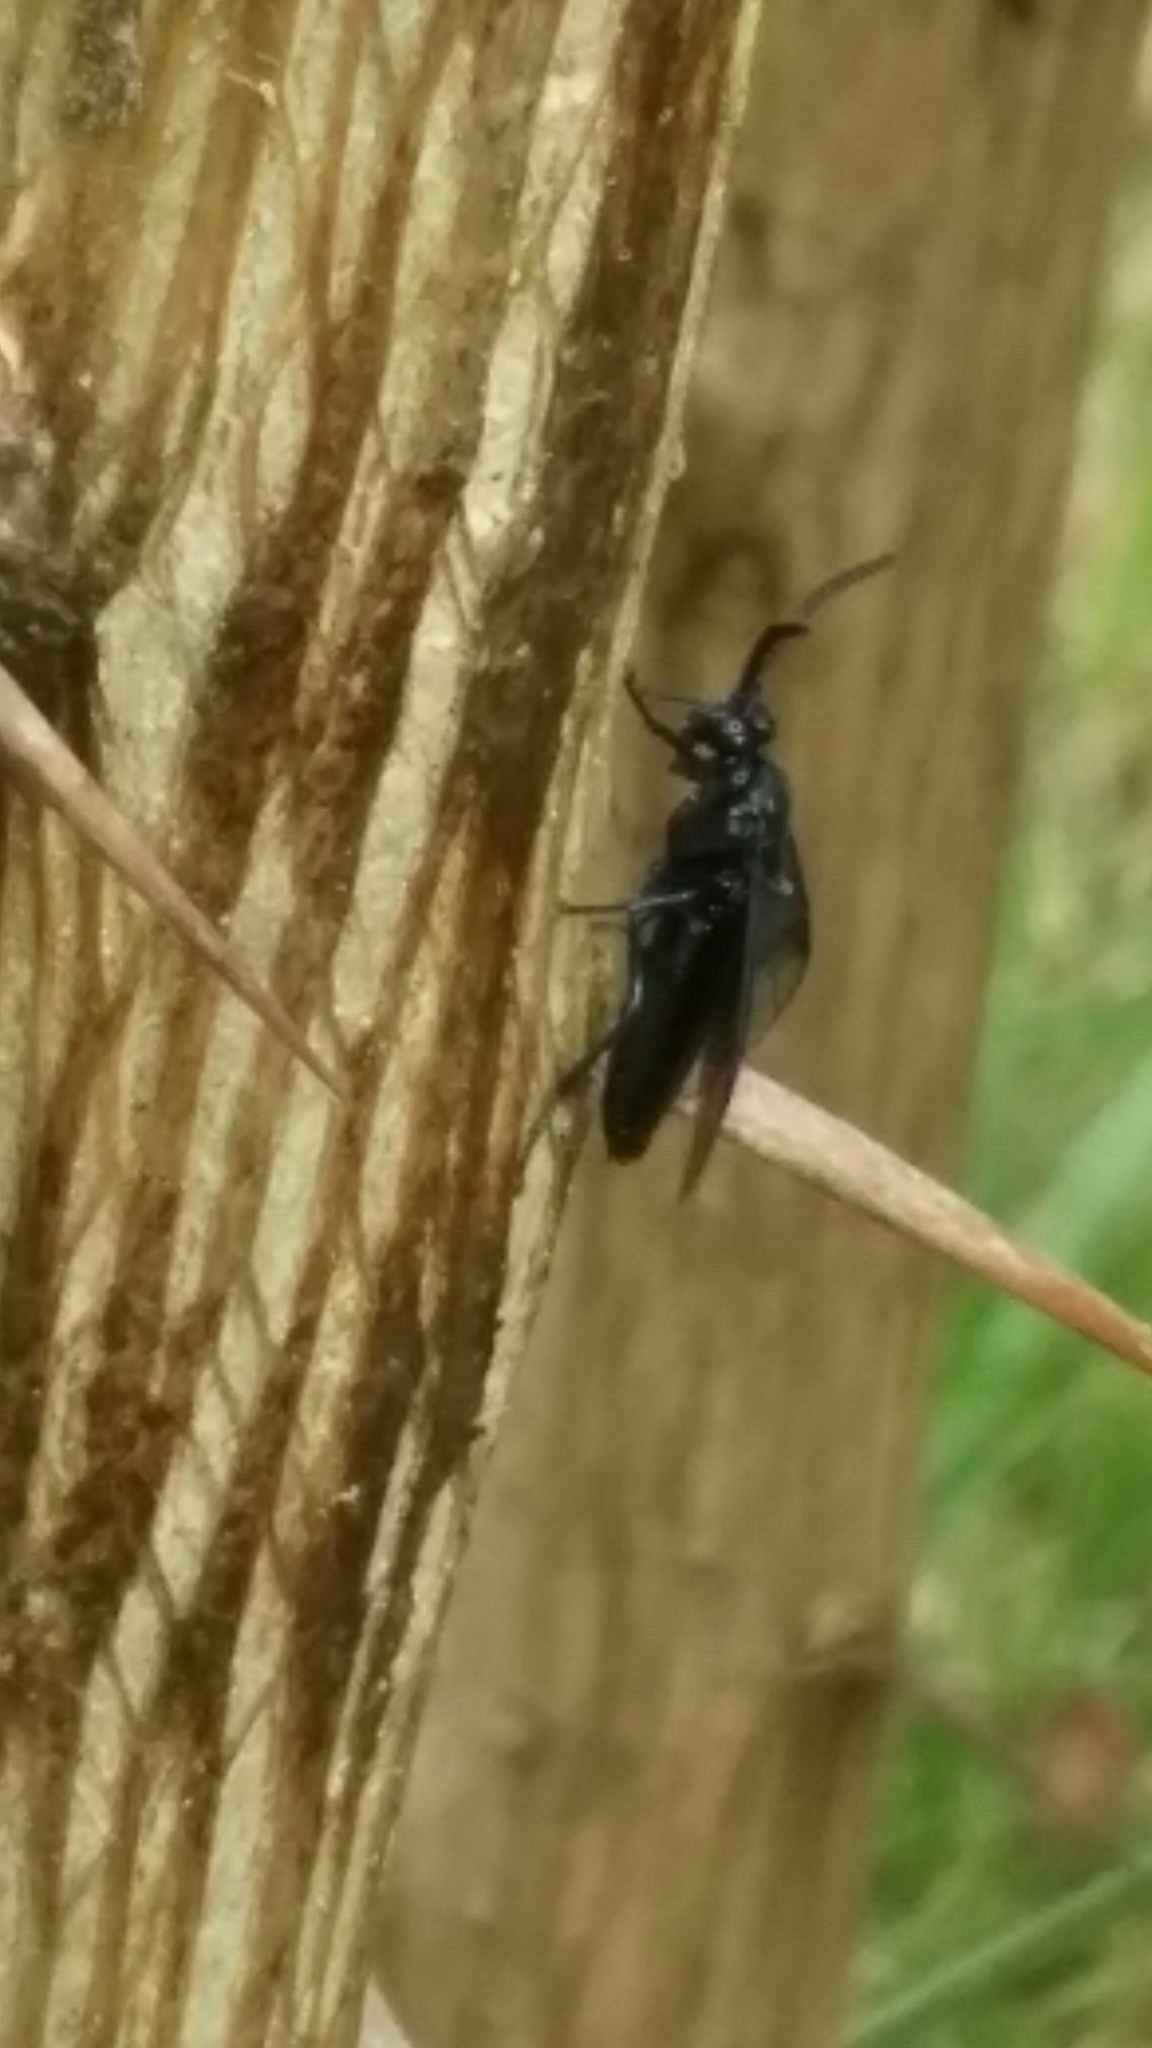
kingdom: Animalia
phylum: Arthropoda
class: Insecta
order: Hymenoptera
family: Argidae
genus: Arge
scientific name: Arge berberidis
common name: Berberis sawfly
